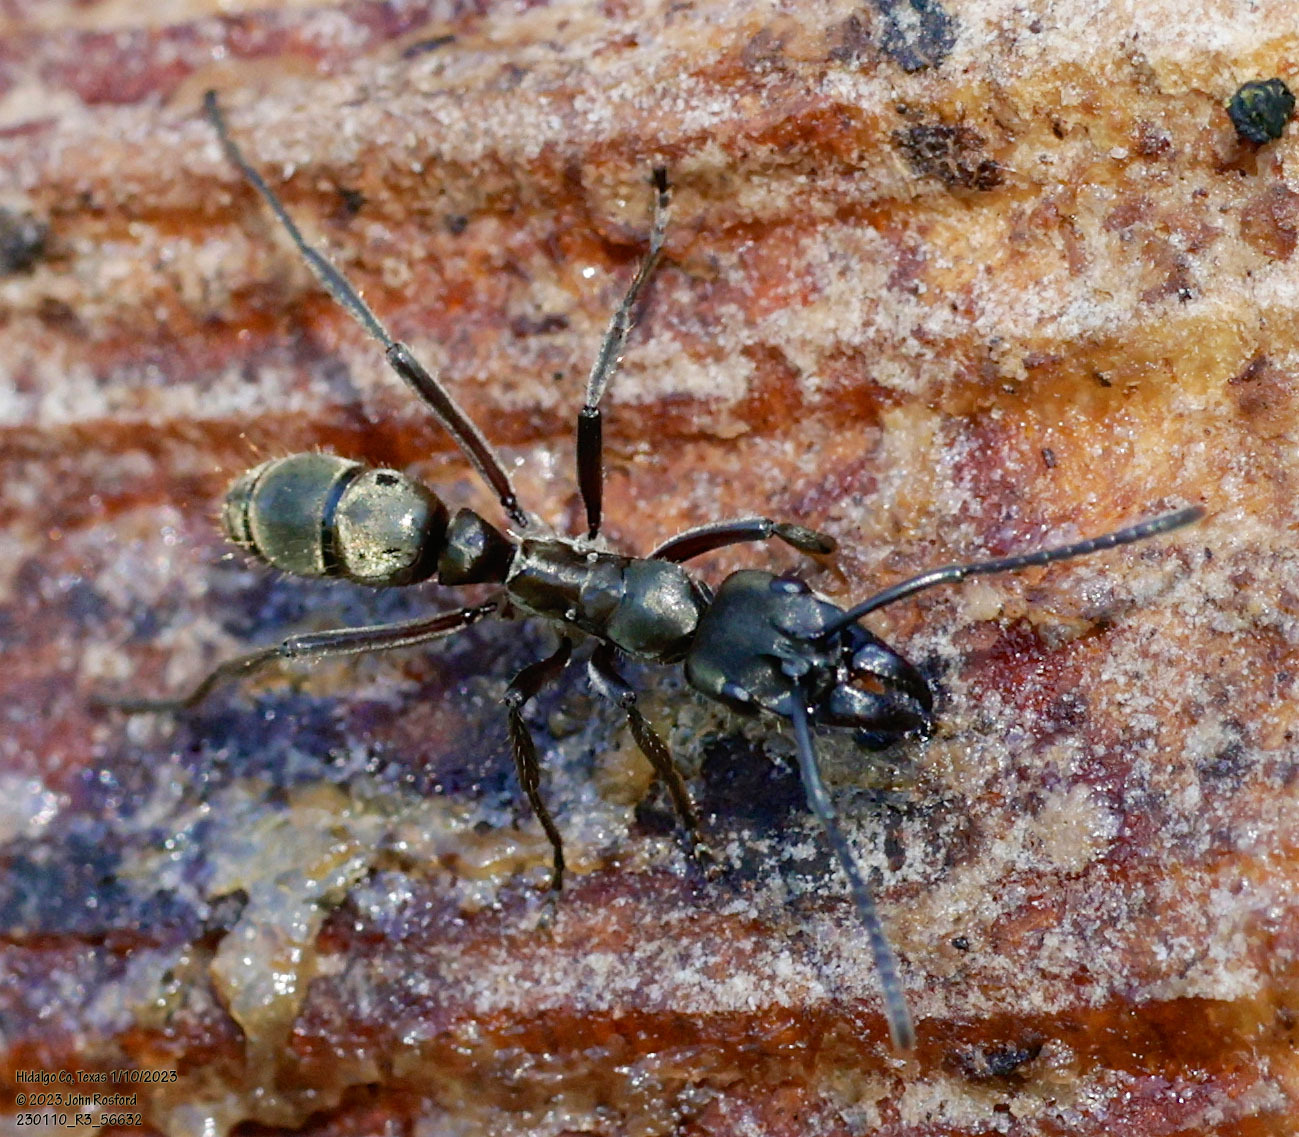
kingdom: Animalia
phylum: Arthropoda
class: Insecta
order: Hymenoptera
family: Formicidae
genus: Pachycondyla
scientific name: Pachycondyla villosa
